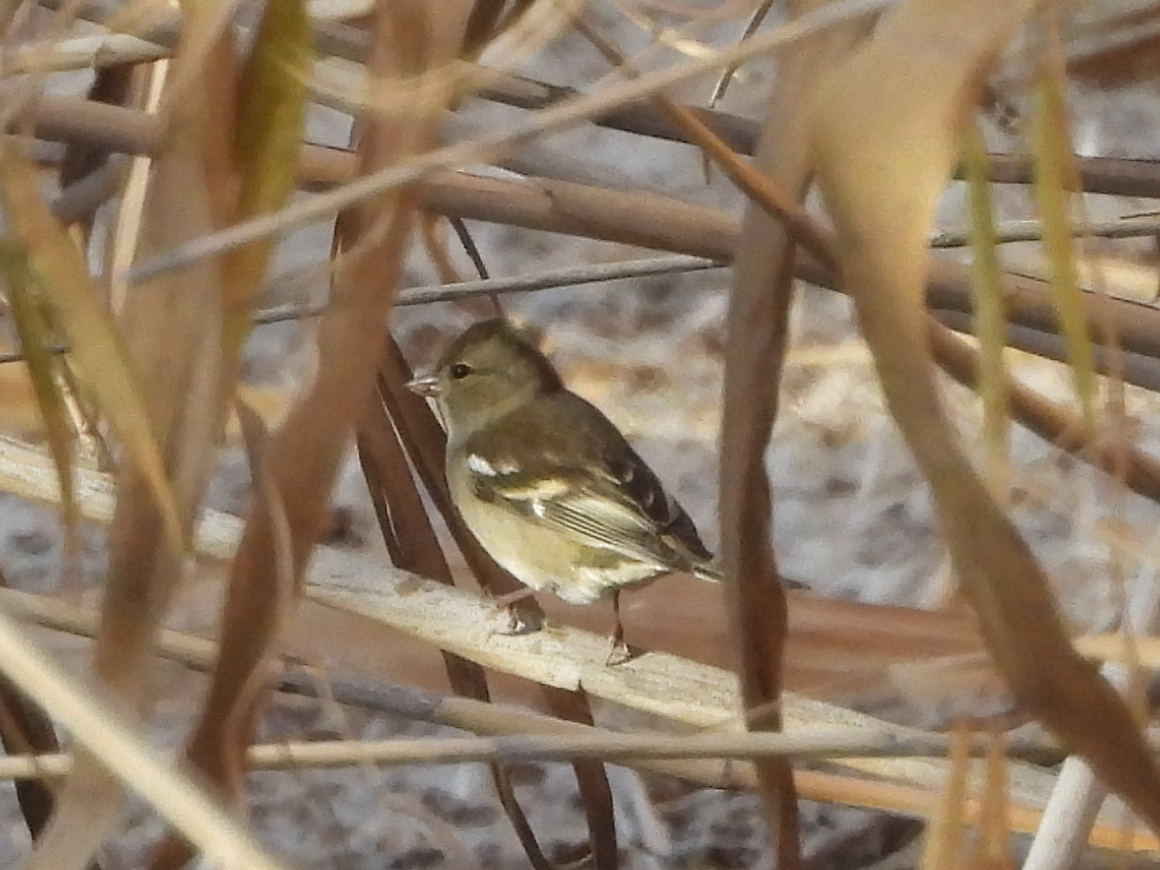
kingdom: Animalia
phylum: Chordata
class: Aves
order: Passeriformes
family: Fringillidae
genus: Fringilla
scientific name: Fringilla coelebs
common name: Common chaffinch
